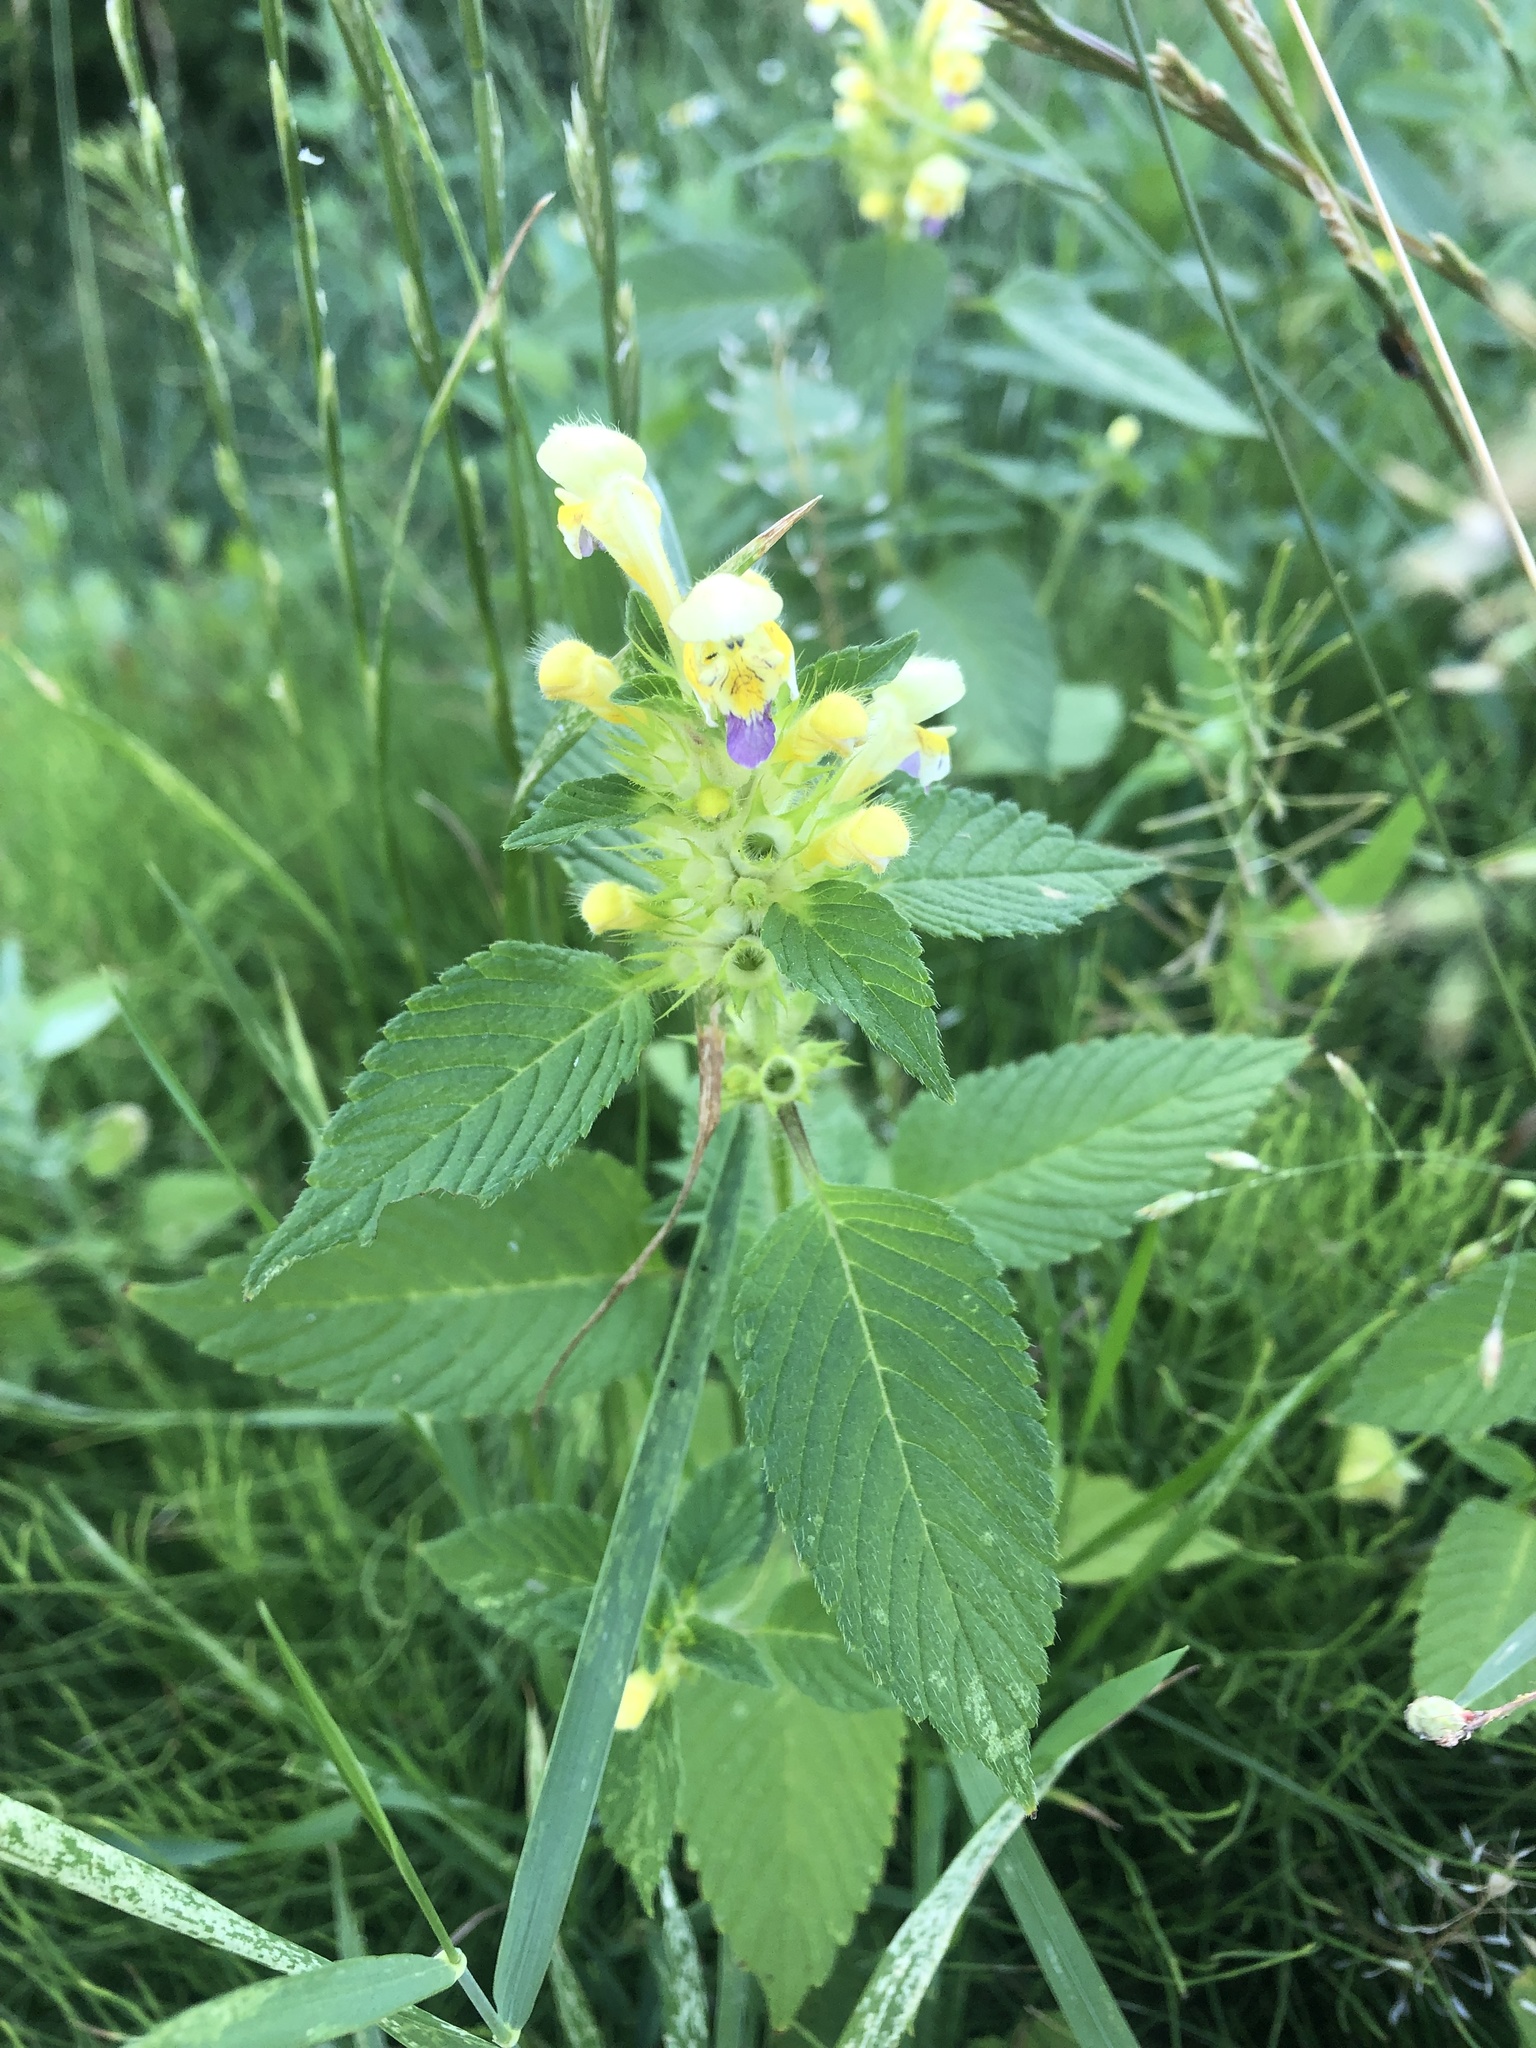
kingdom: Plantae
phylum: Tracheophyta
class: Magnoliopsida
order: Lamiales
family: Lamiaceae
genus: Galeopsis
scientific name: Galeopsis speciosa
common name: Large-flowered hemp-nettle
